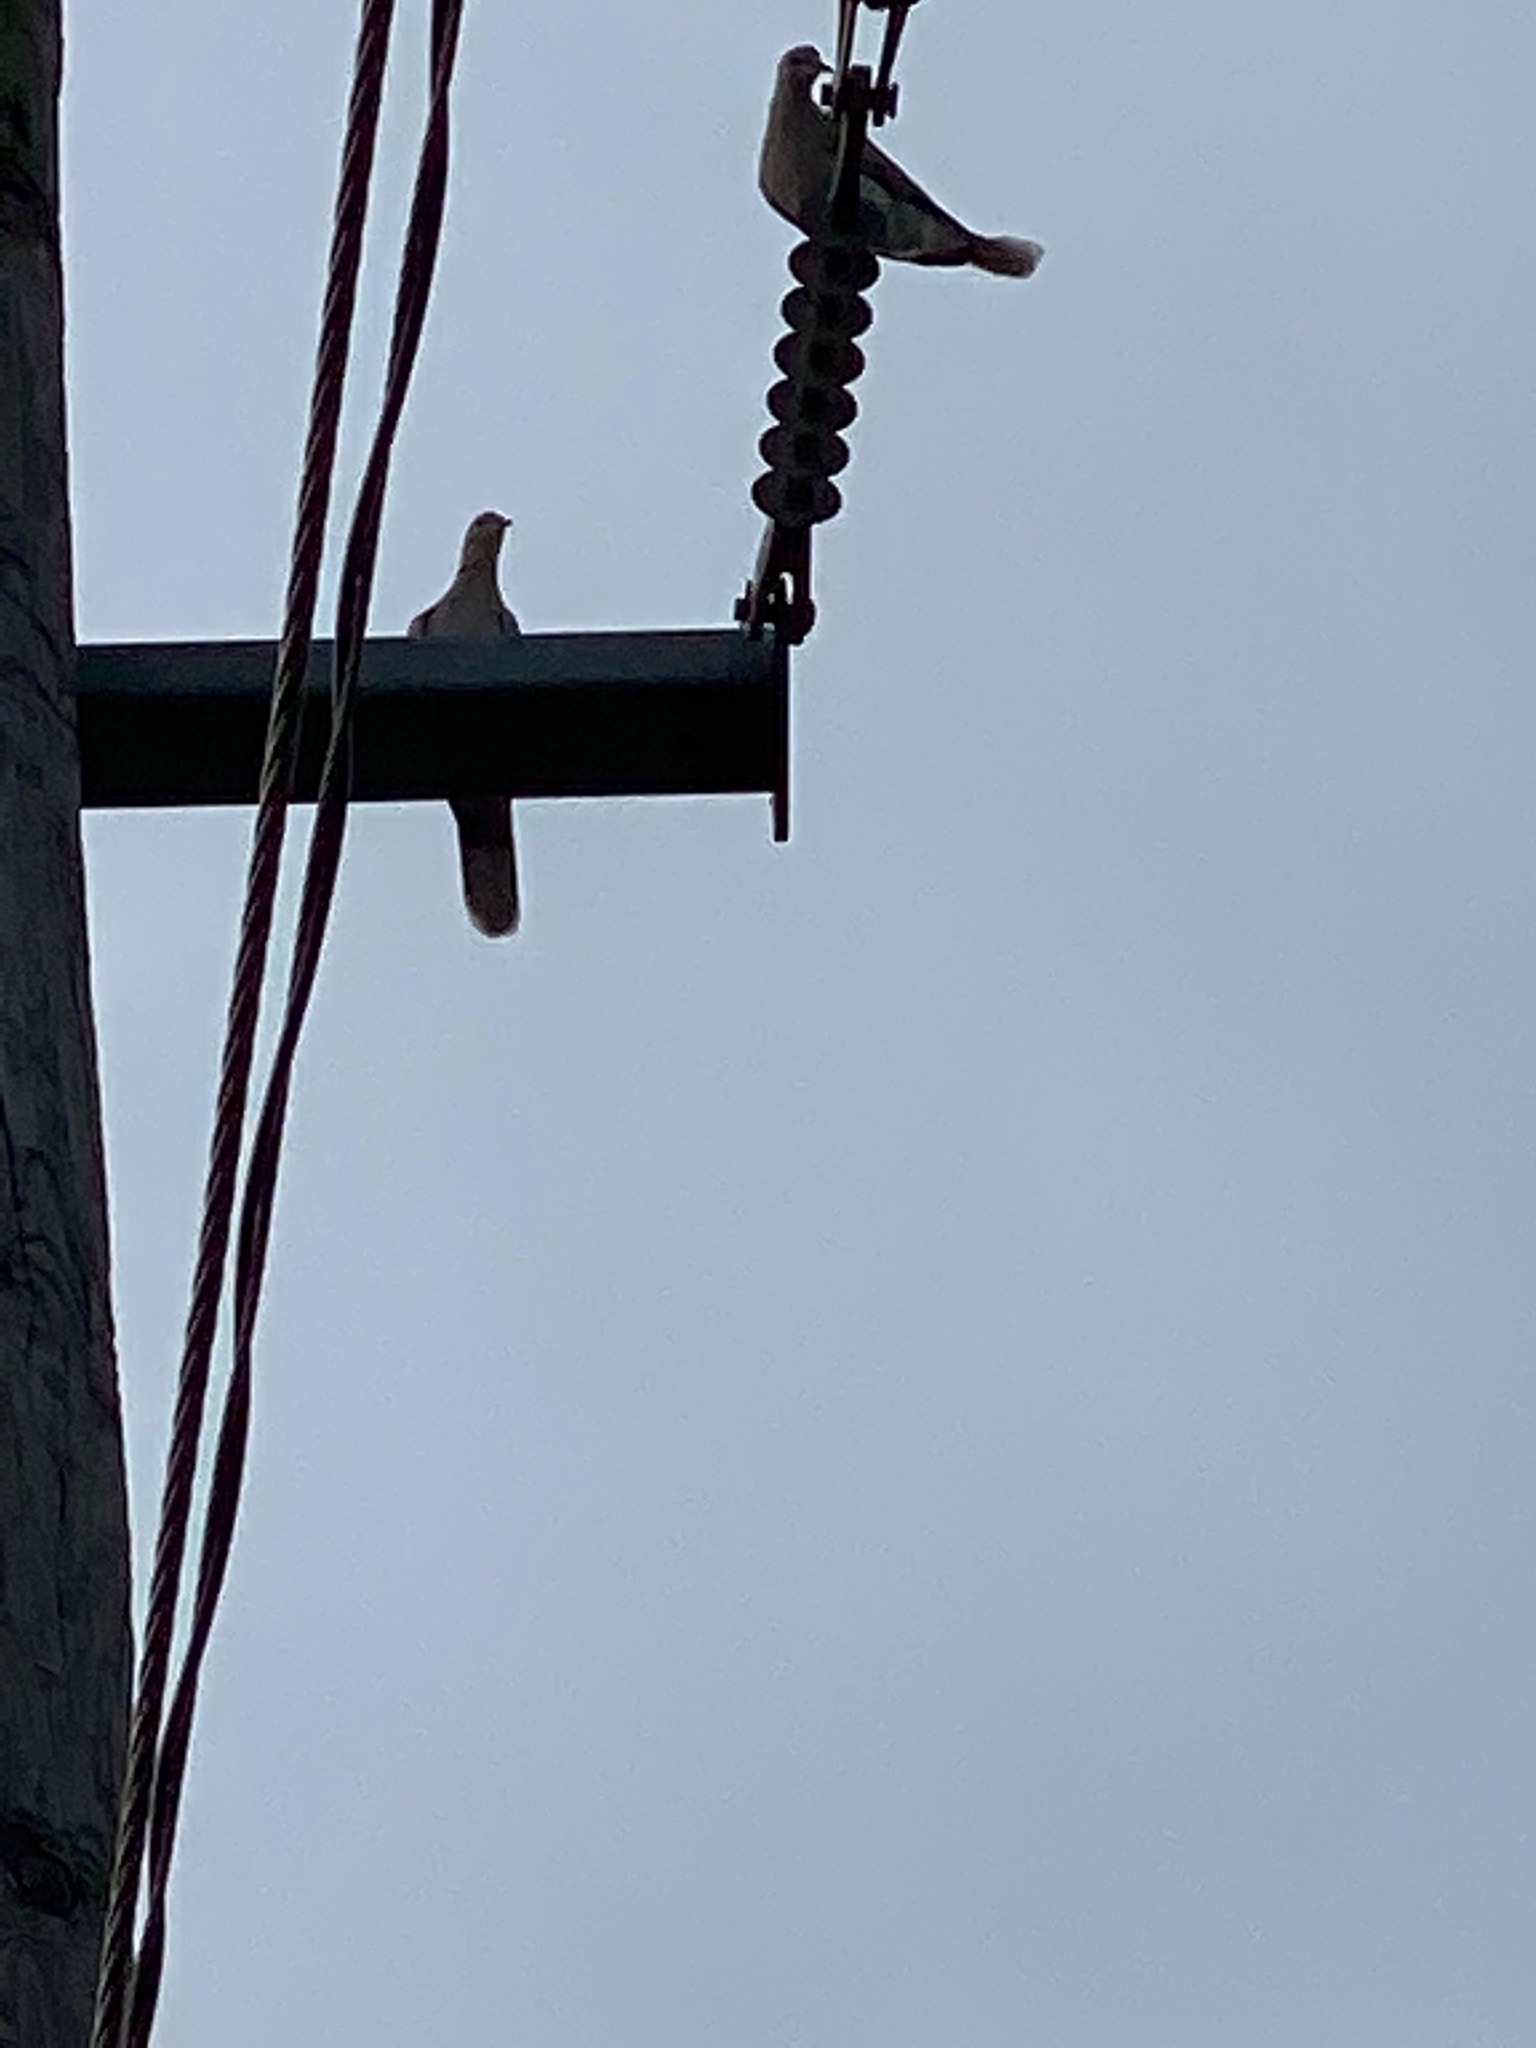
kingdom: Animalia
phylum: Chordata
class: Aves
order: Columbiformes
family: Columbidae
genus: Zenaida
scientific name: Zenaida asiatica
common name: White-winged dove
